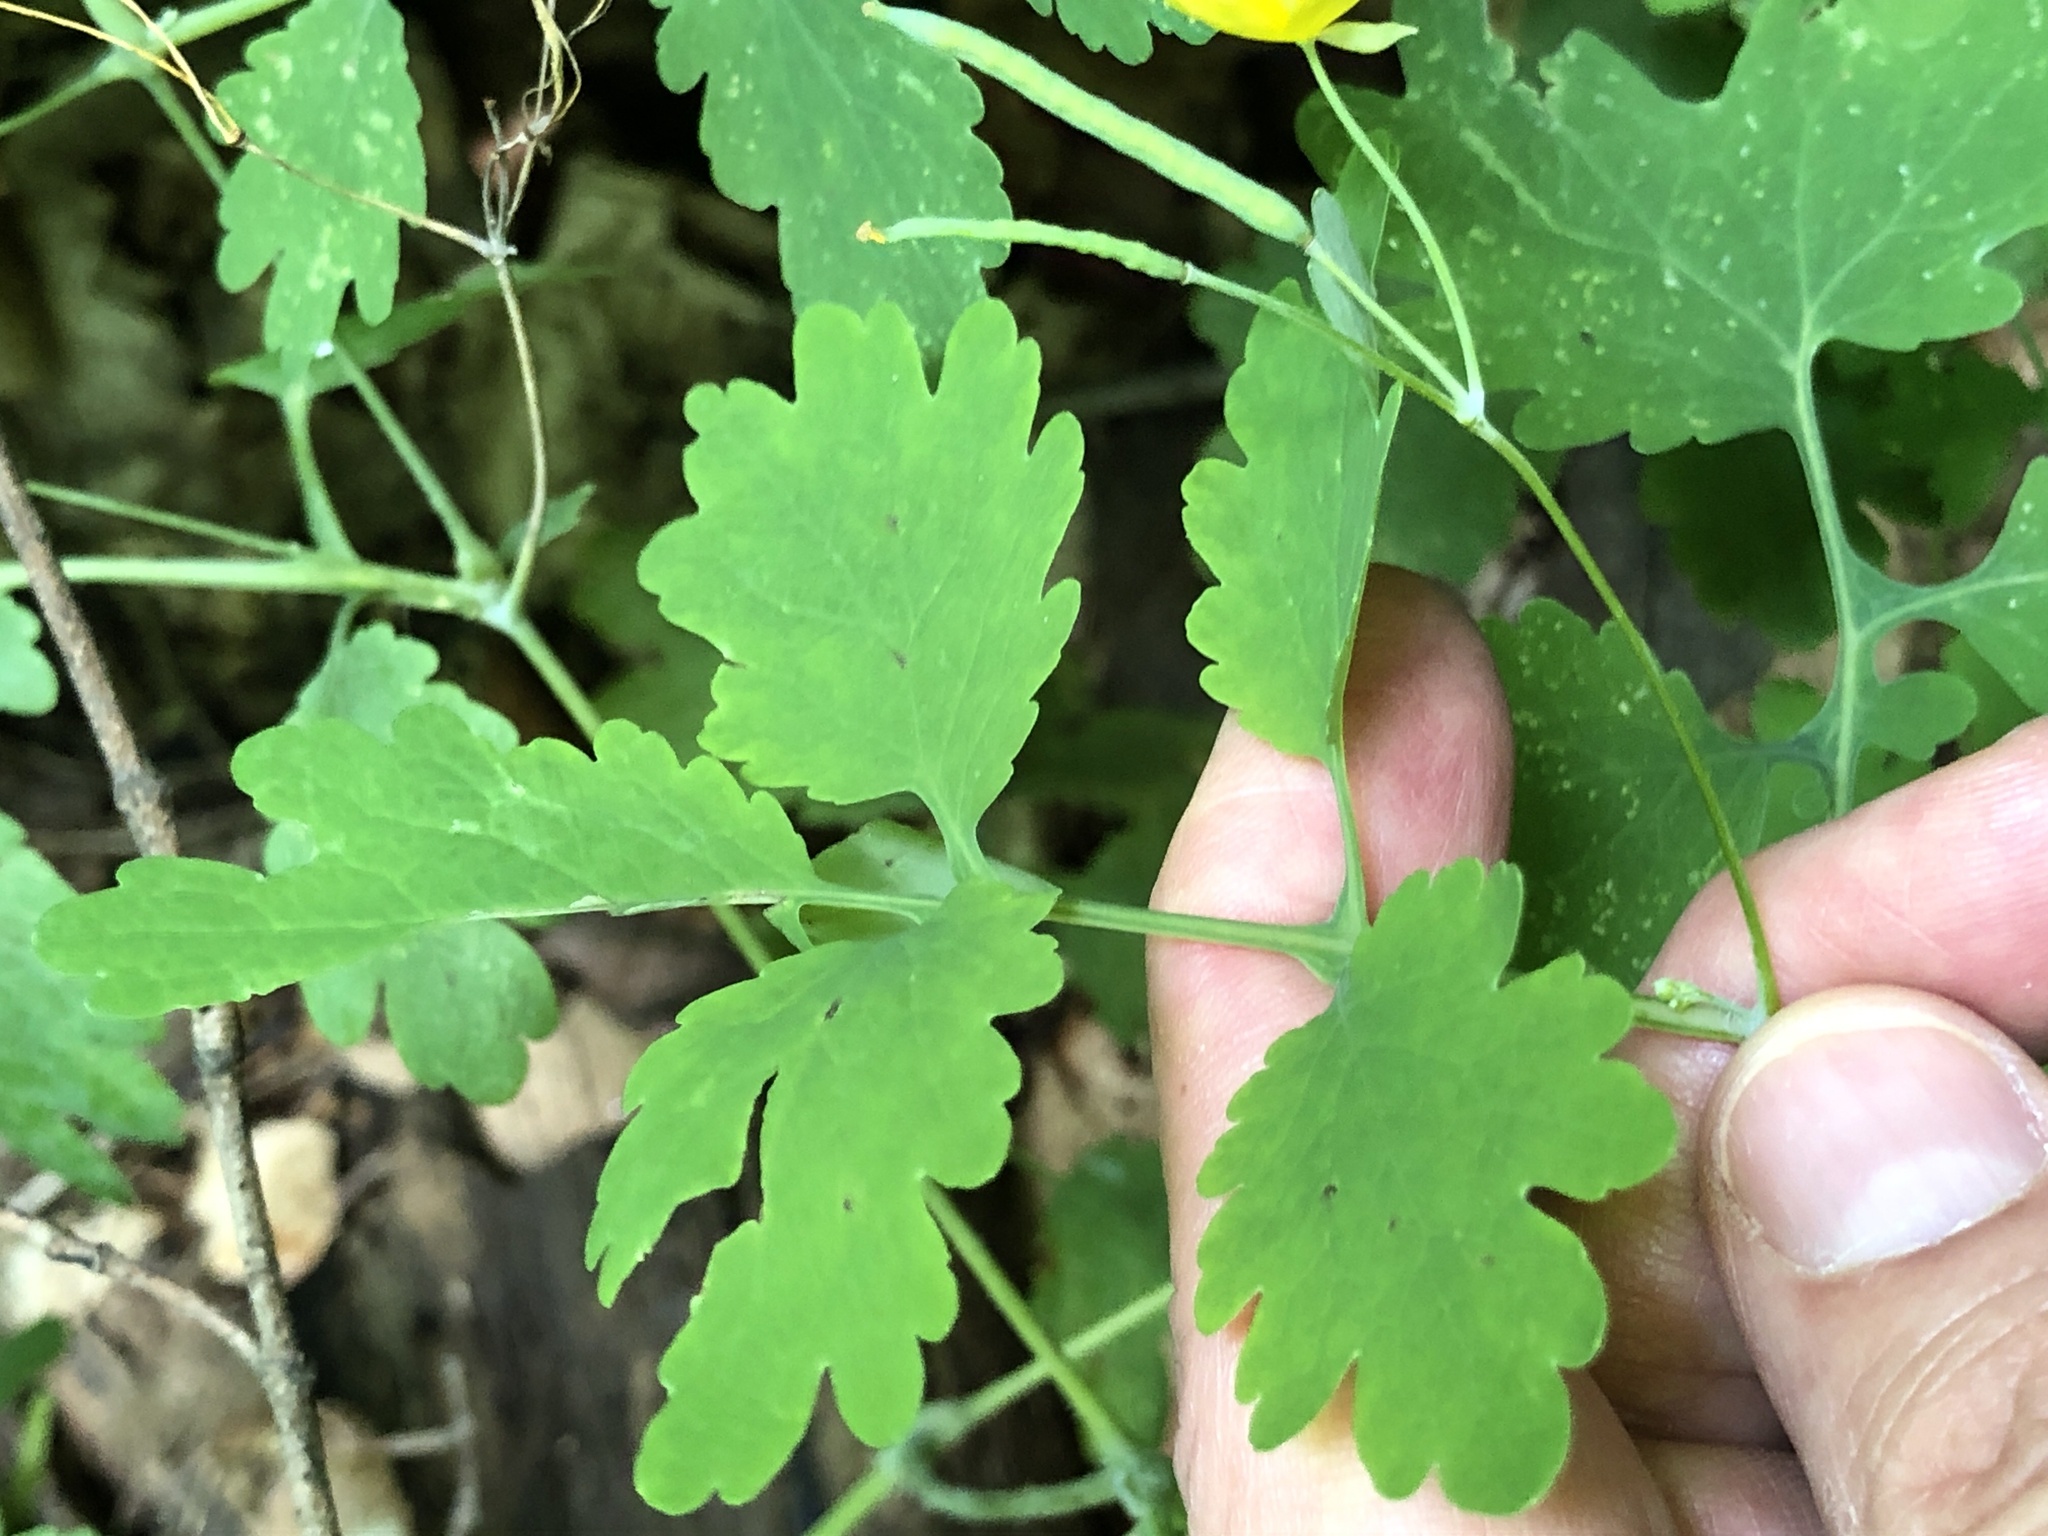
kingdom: Plantae
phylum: Tracheophyta
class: Magnoliopsida
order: Ranunculales
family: Papaveraceae
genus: Chelidonium
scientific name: Chelidonium majus
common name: Greater celandine
